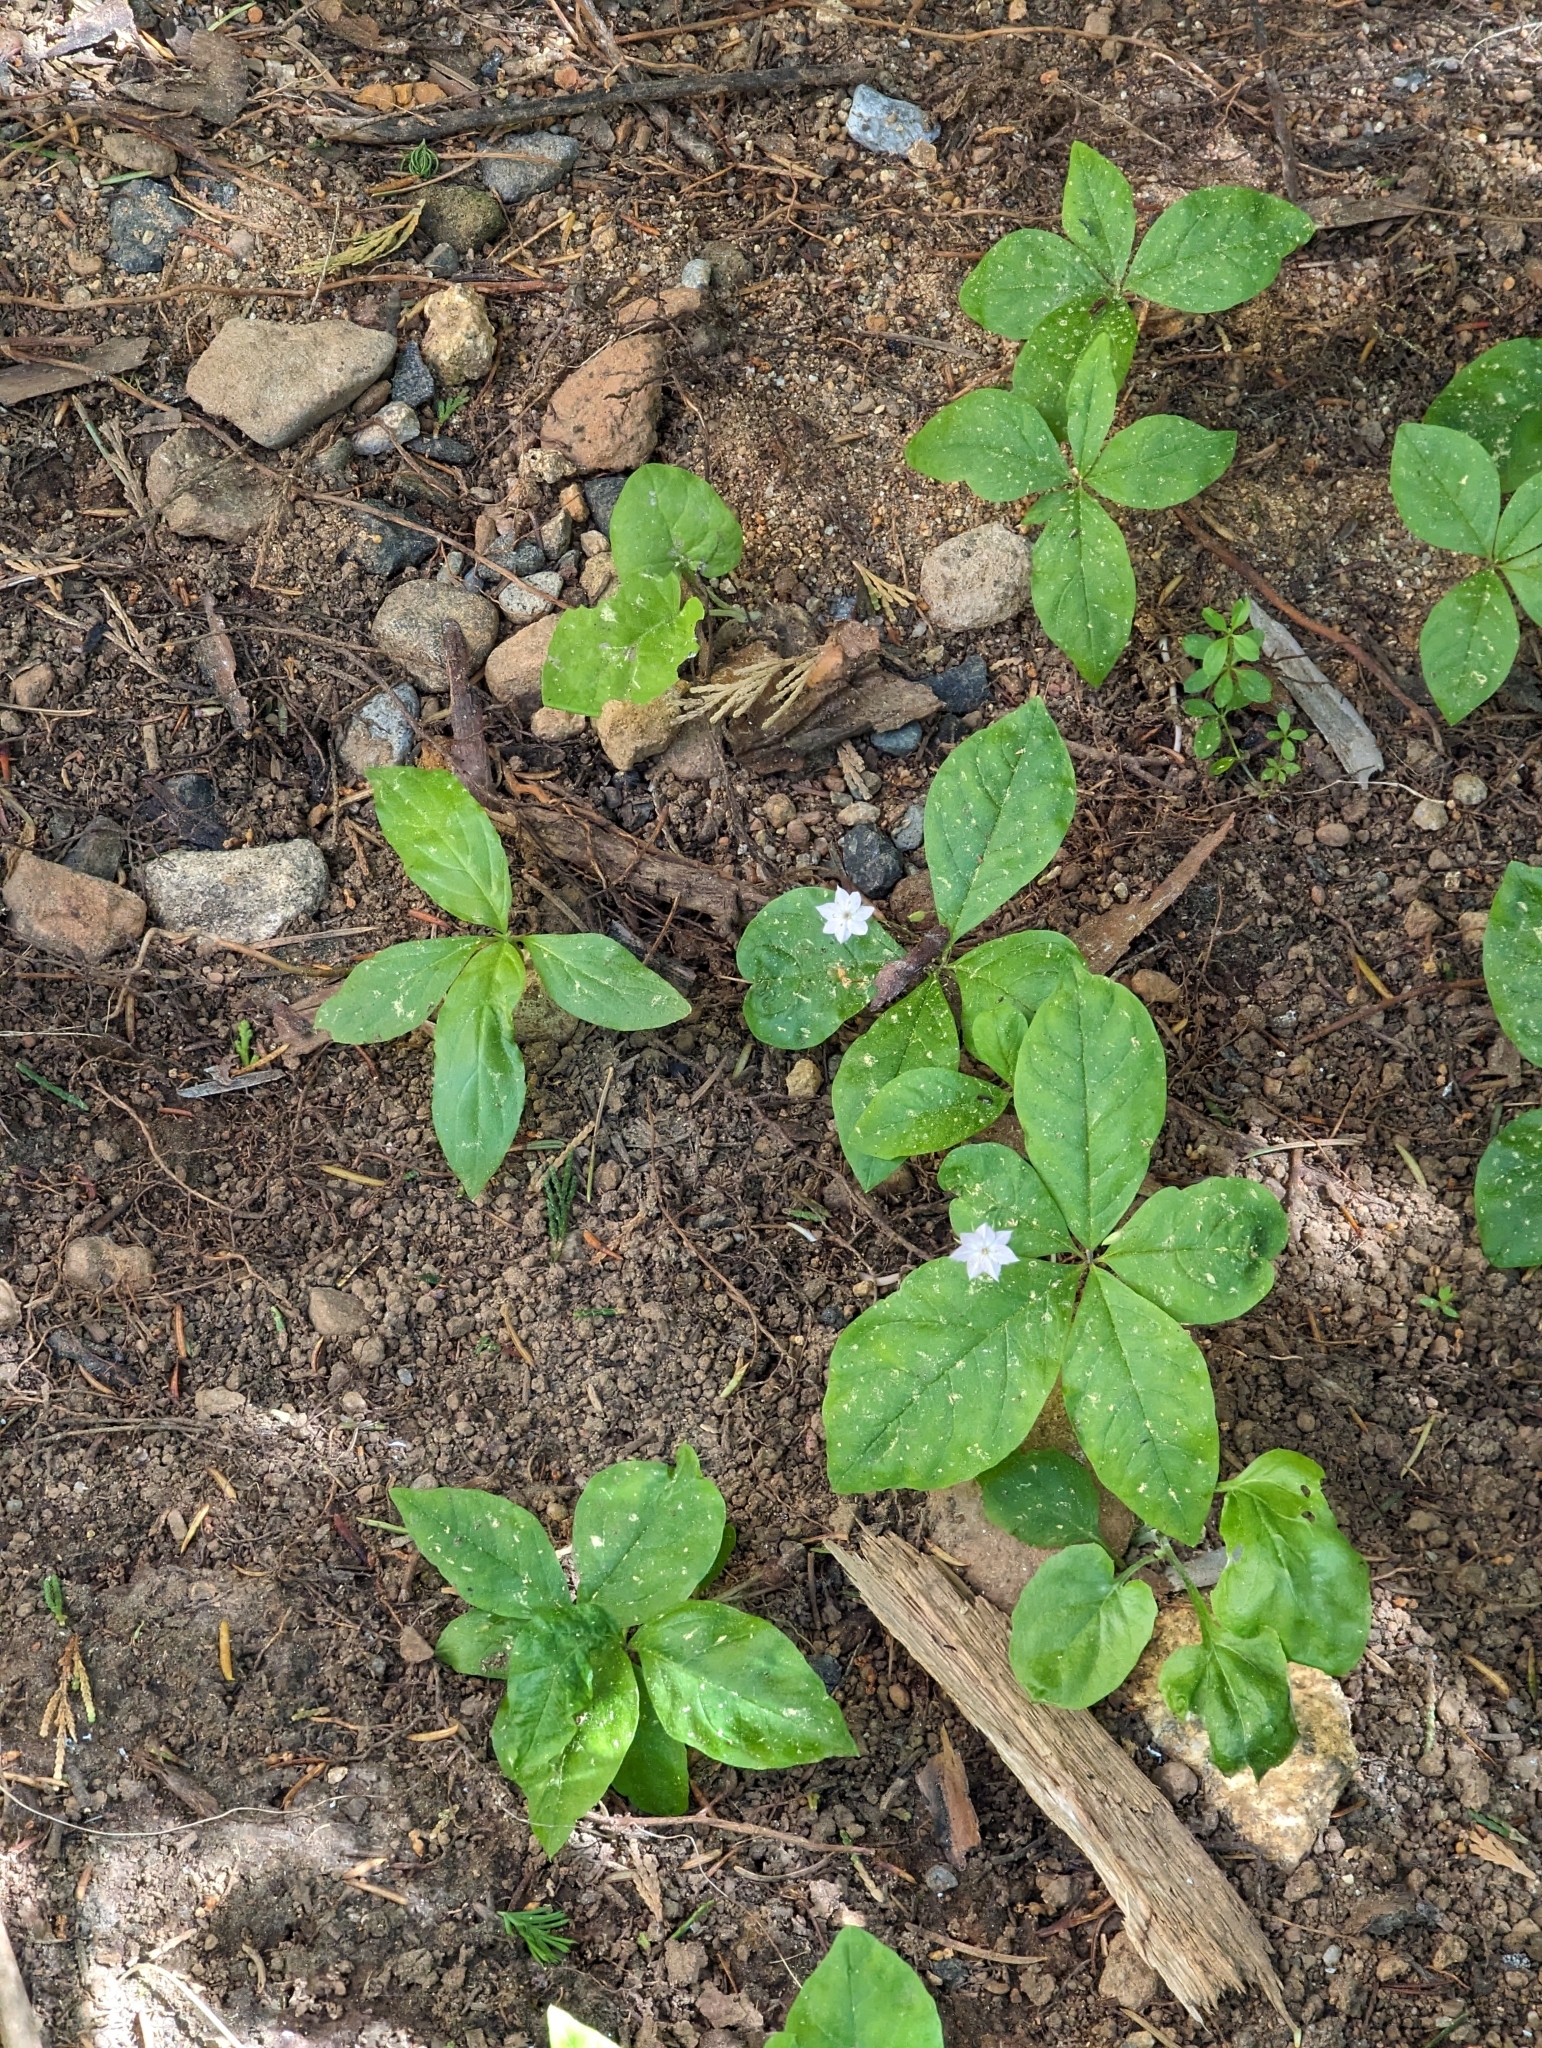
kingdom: Plantae
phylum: Tracheophyta
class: Magnoliopsida
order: Ericales
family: Primulaceae
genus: Lysimachia
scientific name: Lysimachia latifolia
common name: Pacific starflower
